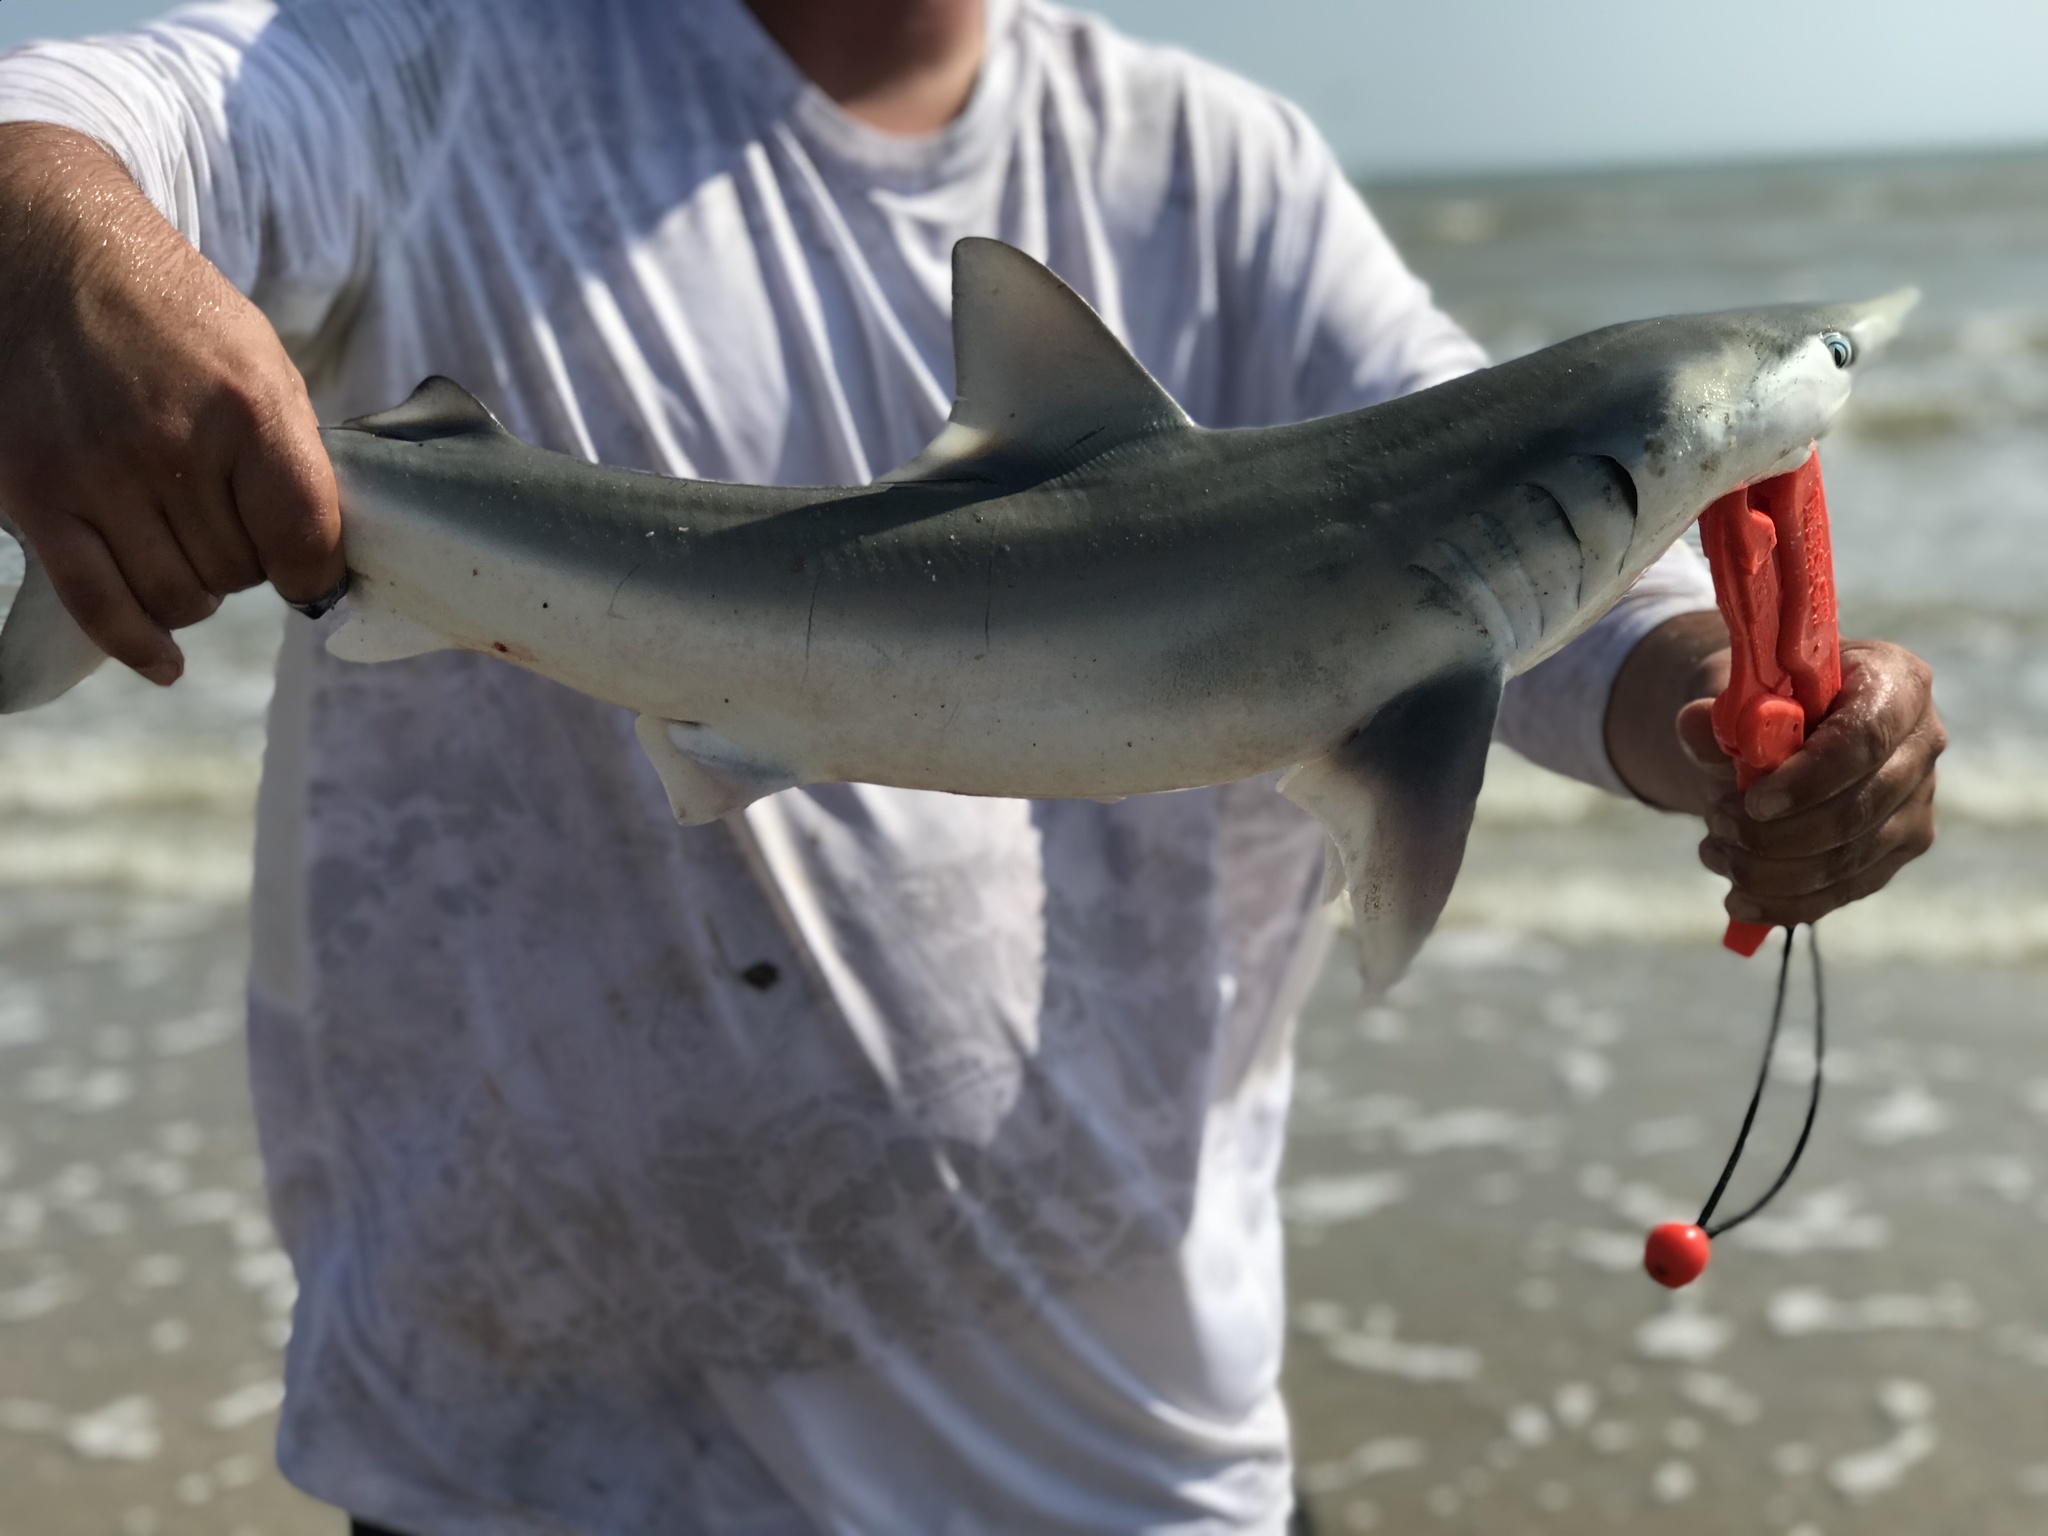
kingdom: Animalia
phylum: Chordata
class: Elasmobranchii
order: Carcharhiniformes
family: Carcharhinidae
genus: Carcharhinus
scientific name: Carcharhinus isodon
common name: Finetooth shark
